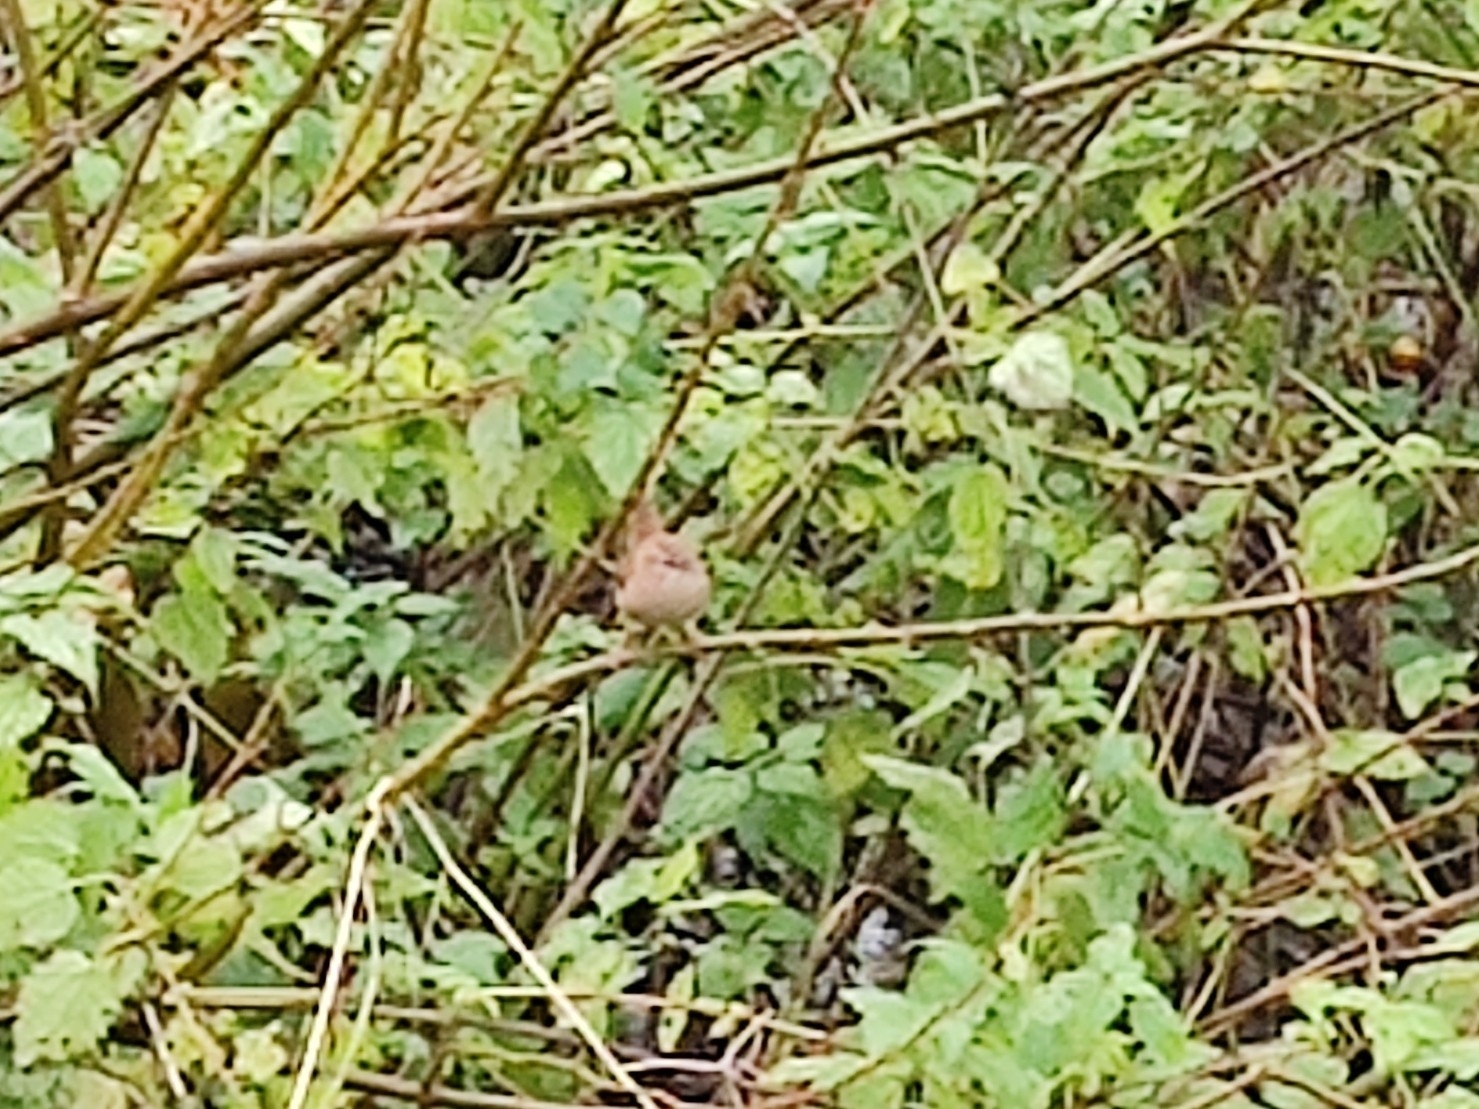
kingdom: Animalia
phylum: Chordata
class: Aves
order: Passeriformes
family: Troglodytidae
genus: Troglodytes
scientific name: Troglodytes troglodytes
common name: Eurasian wren
